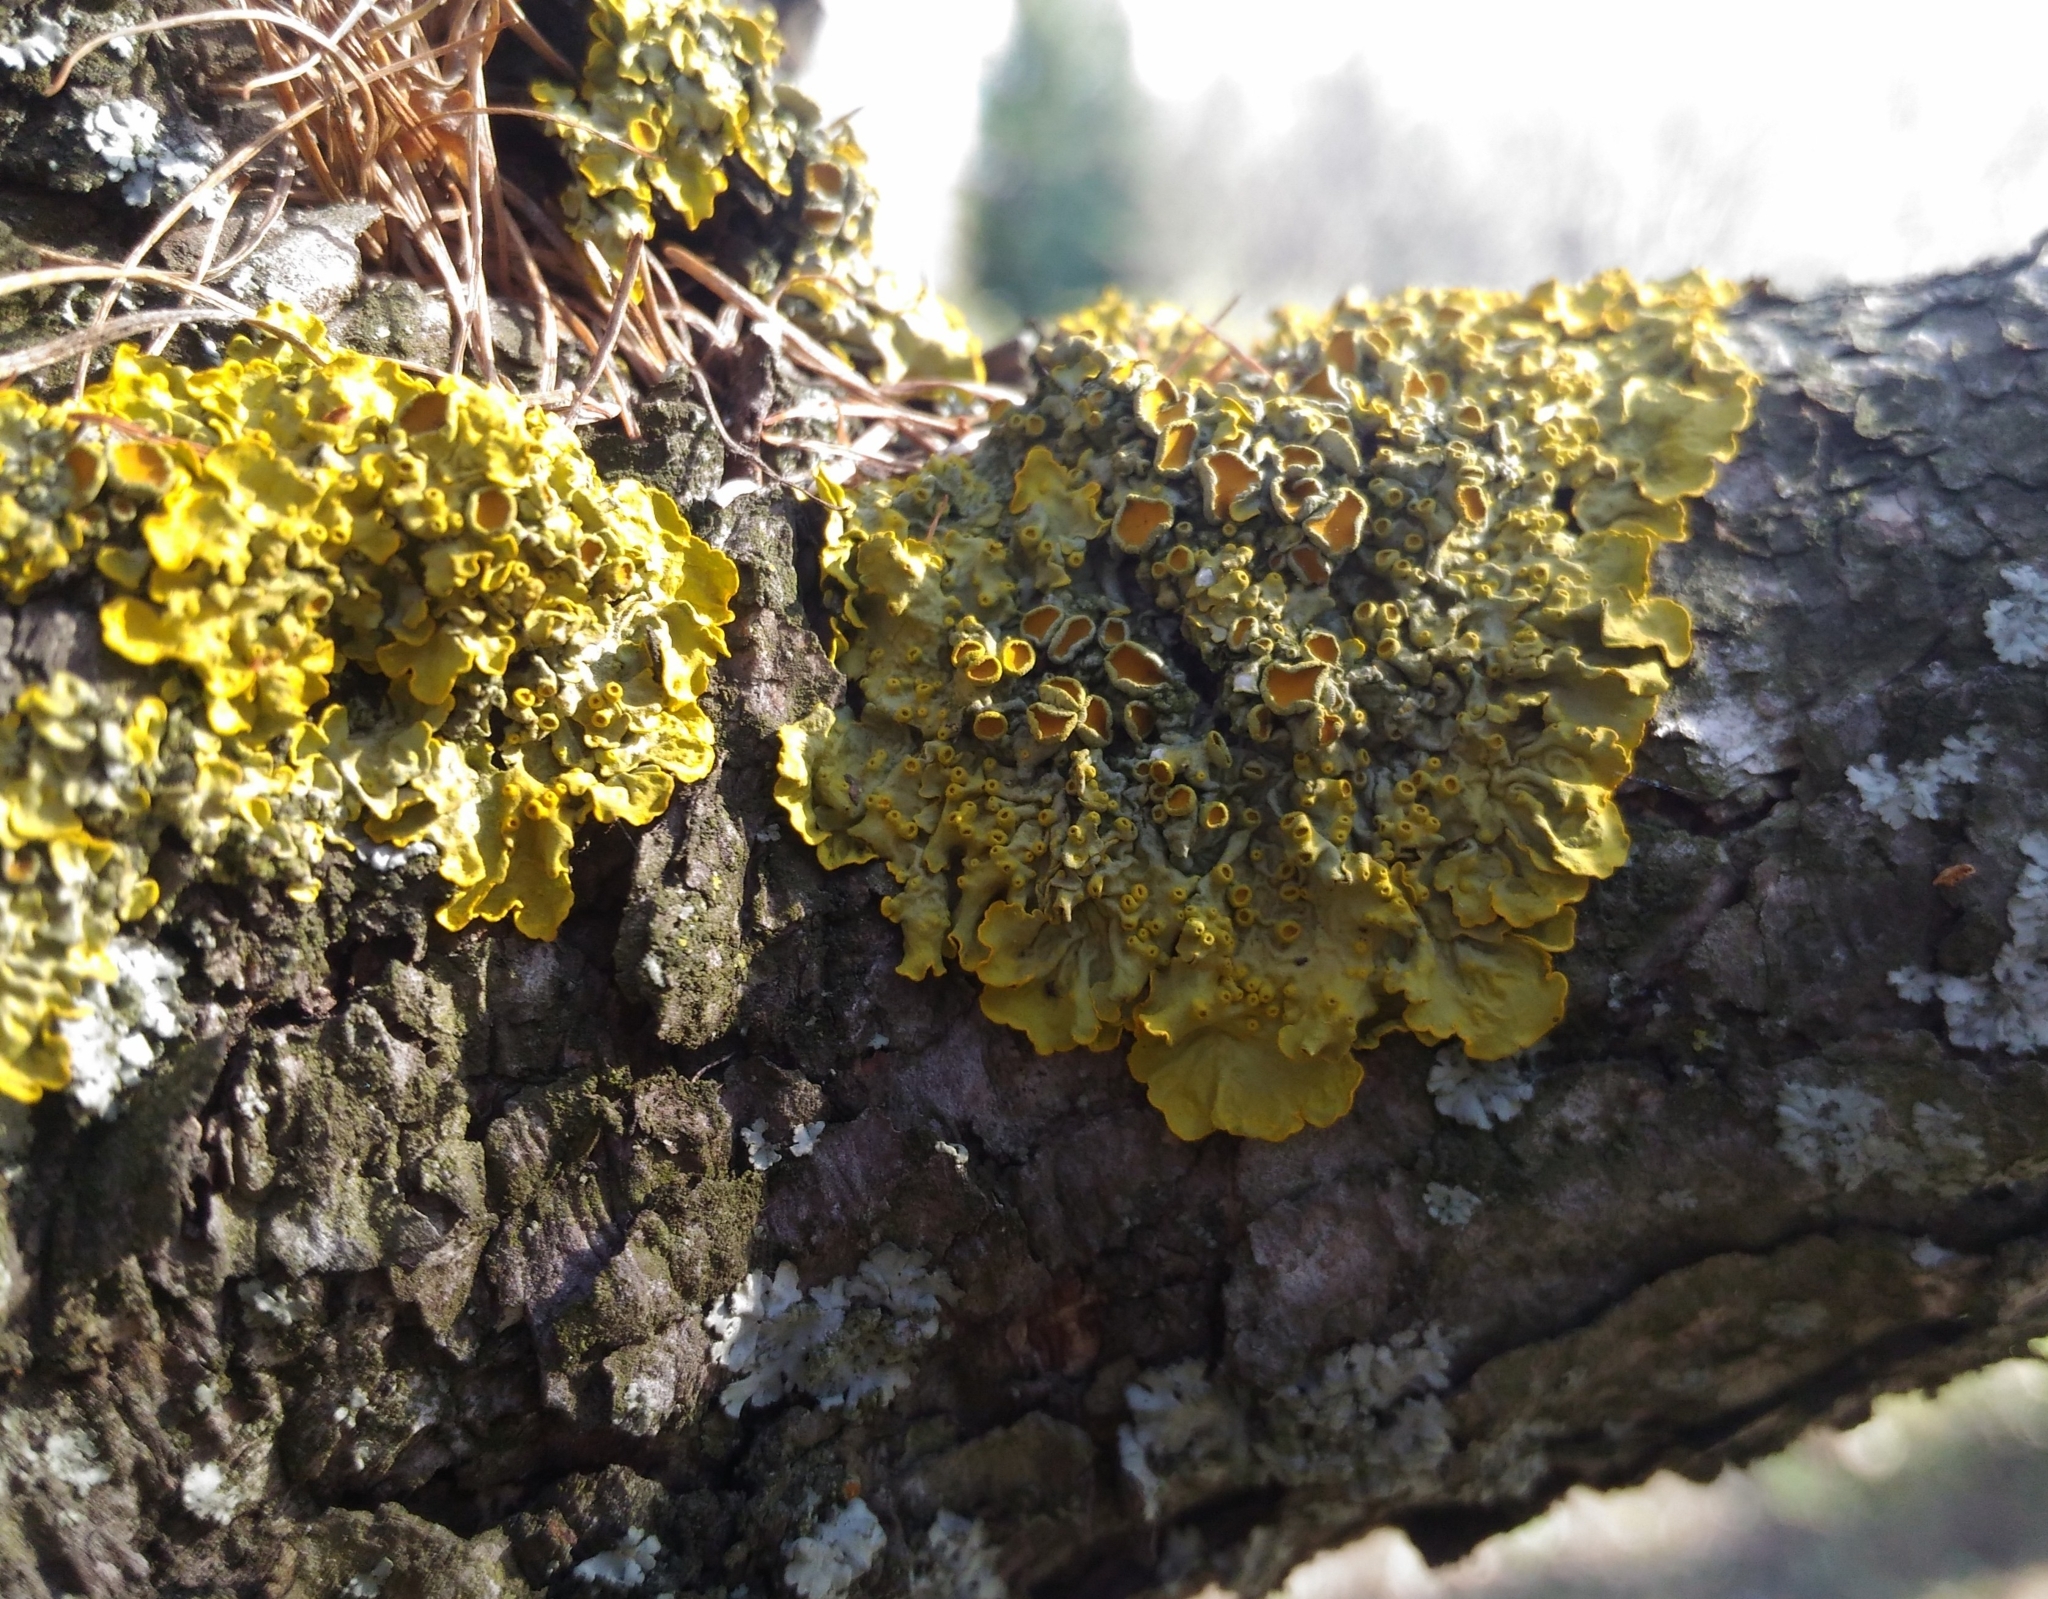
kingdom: Fungi
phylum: Ascomycota
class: Lecanoromycetes
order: Teloschistales
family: Teloschistaceae
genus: Xanthoria
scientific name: Xanthoria parietina
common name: Common orange lichen
